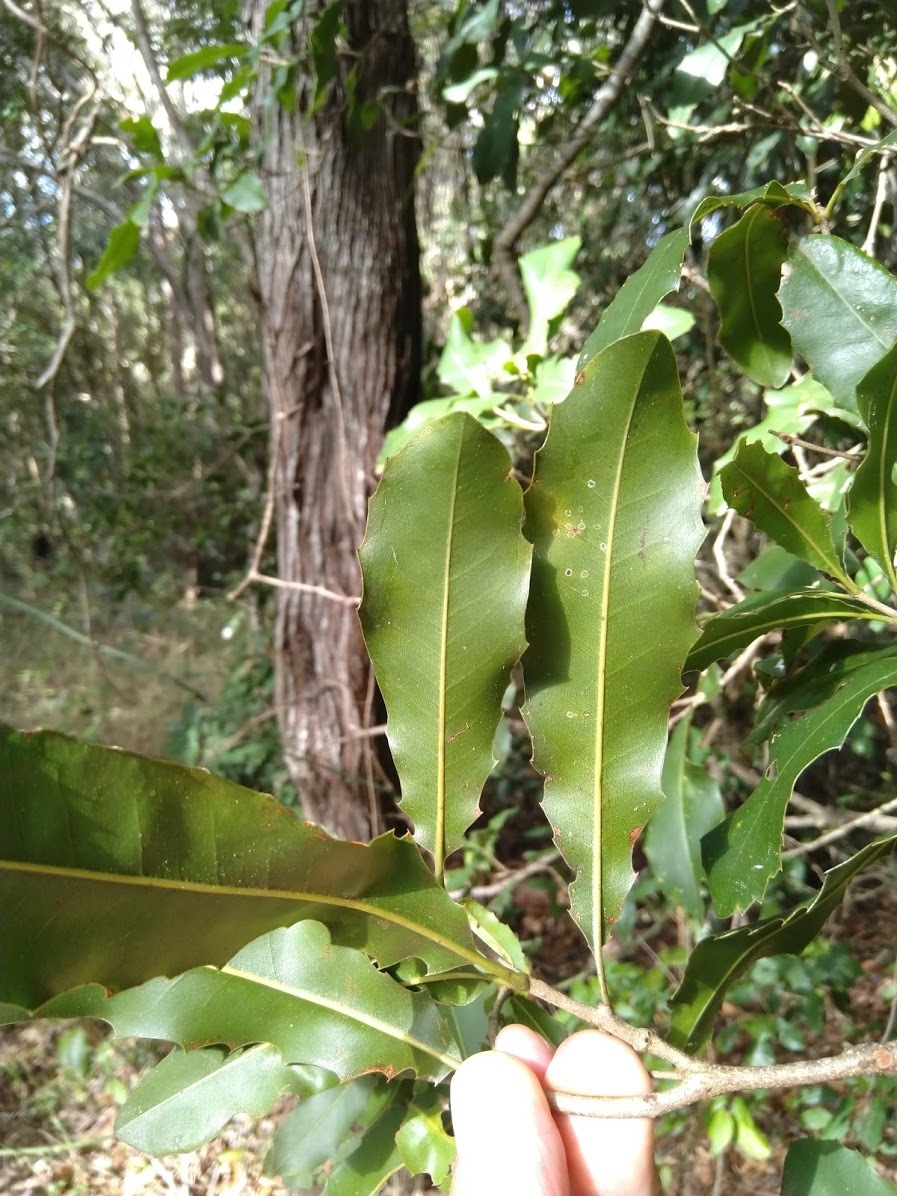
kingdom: Plantae
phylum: Tracheophyta
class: Magnoliopsida
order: Proteales
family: Proteaceae
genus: Macadamia
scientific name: Macadamia integrifolia
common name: Macadamia
